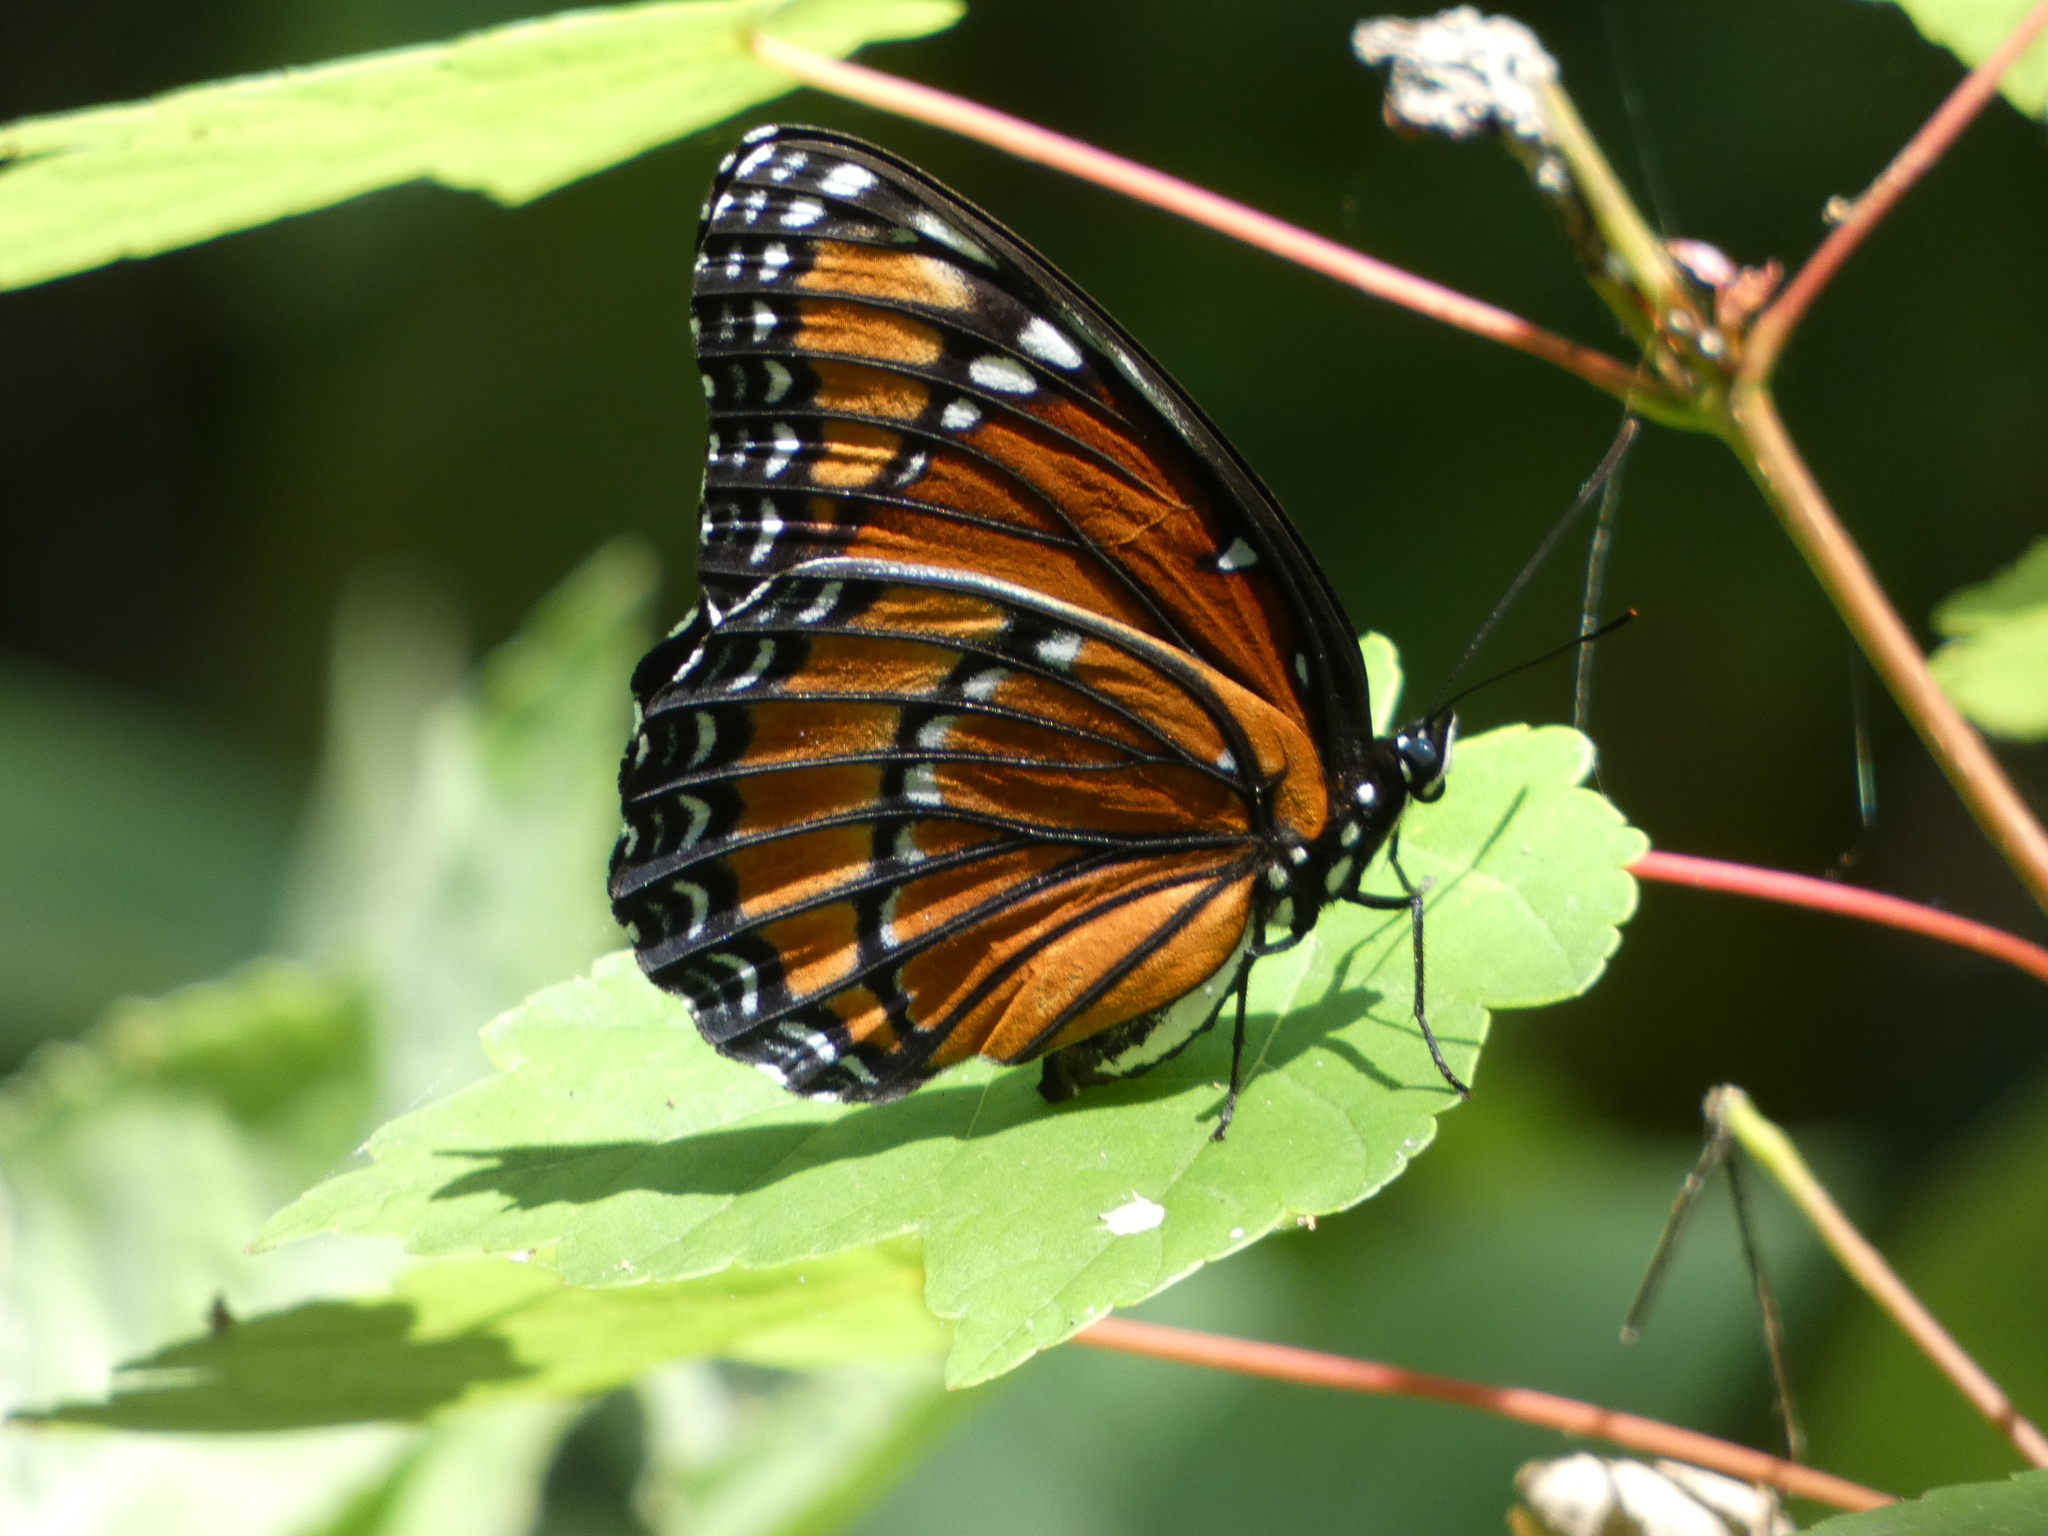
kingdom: Animalia
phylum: Arthropoda
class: Insecta
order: Lepidoptera
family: Nymphalidae
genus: Limenitis
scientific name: Limenitis archippus
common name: Viceroy
